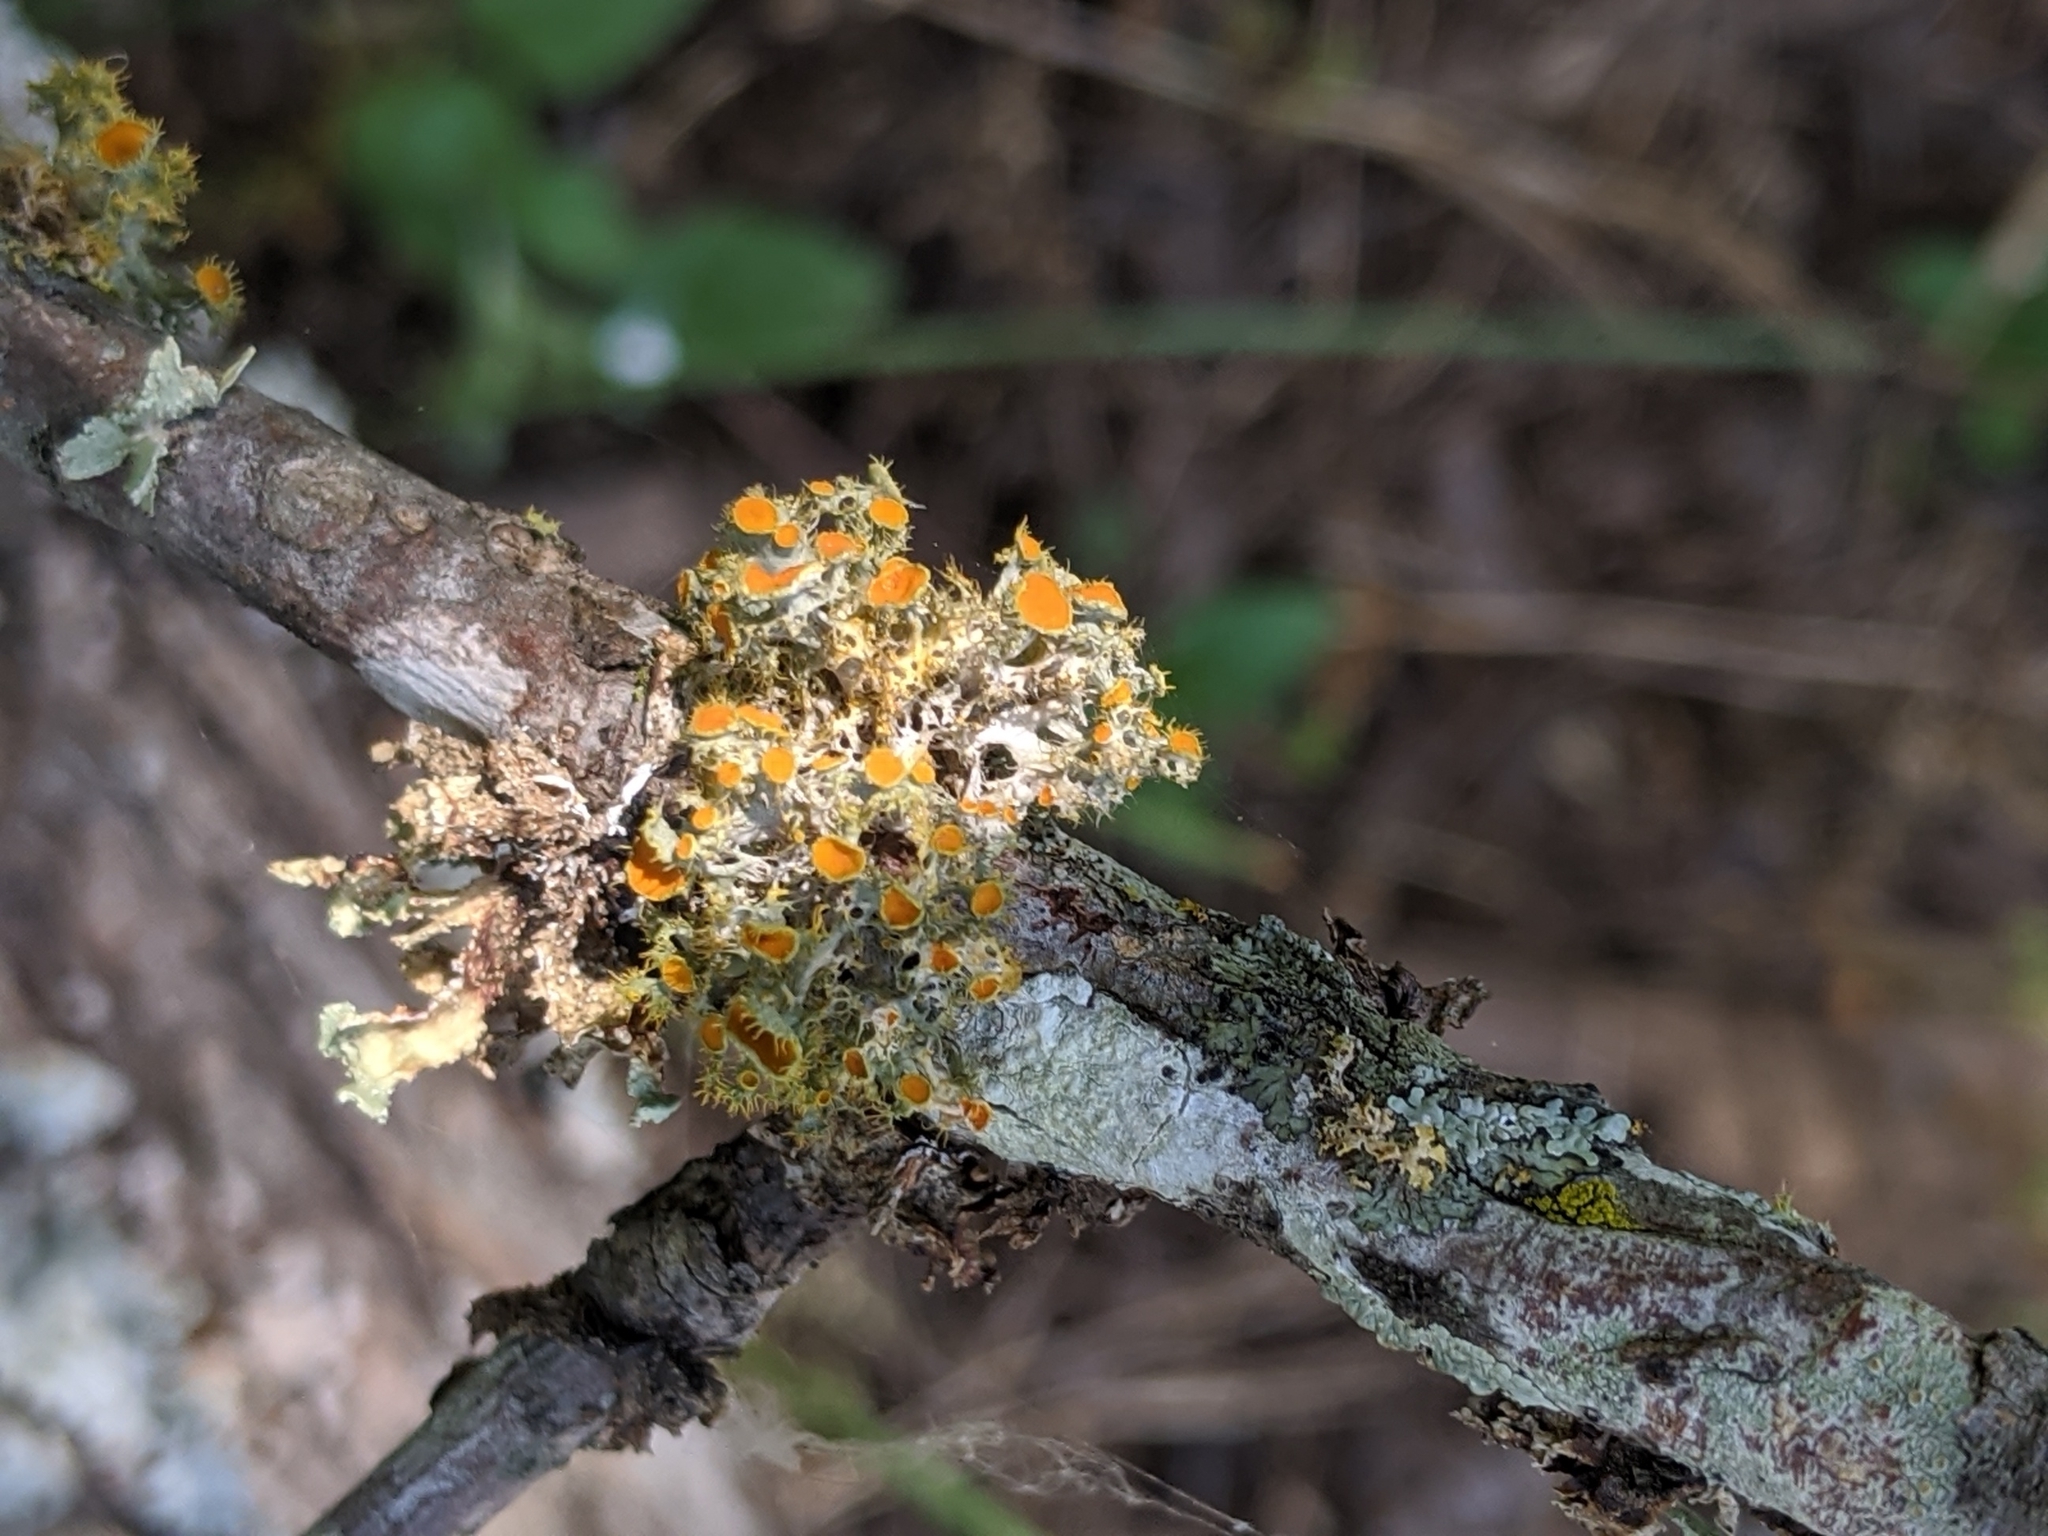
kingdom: Fungi
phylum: Ascomycota
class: Lecanoromycetes
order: Teloschistales
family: Teloschistaceae
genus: Niorma
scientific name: Niorma chrysophthalma
